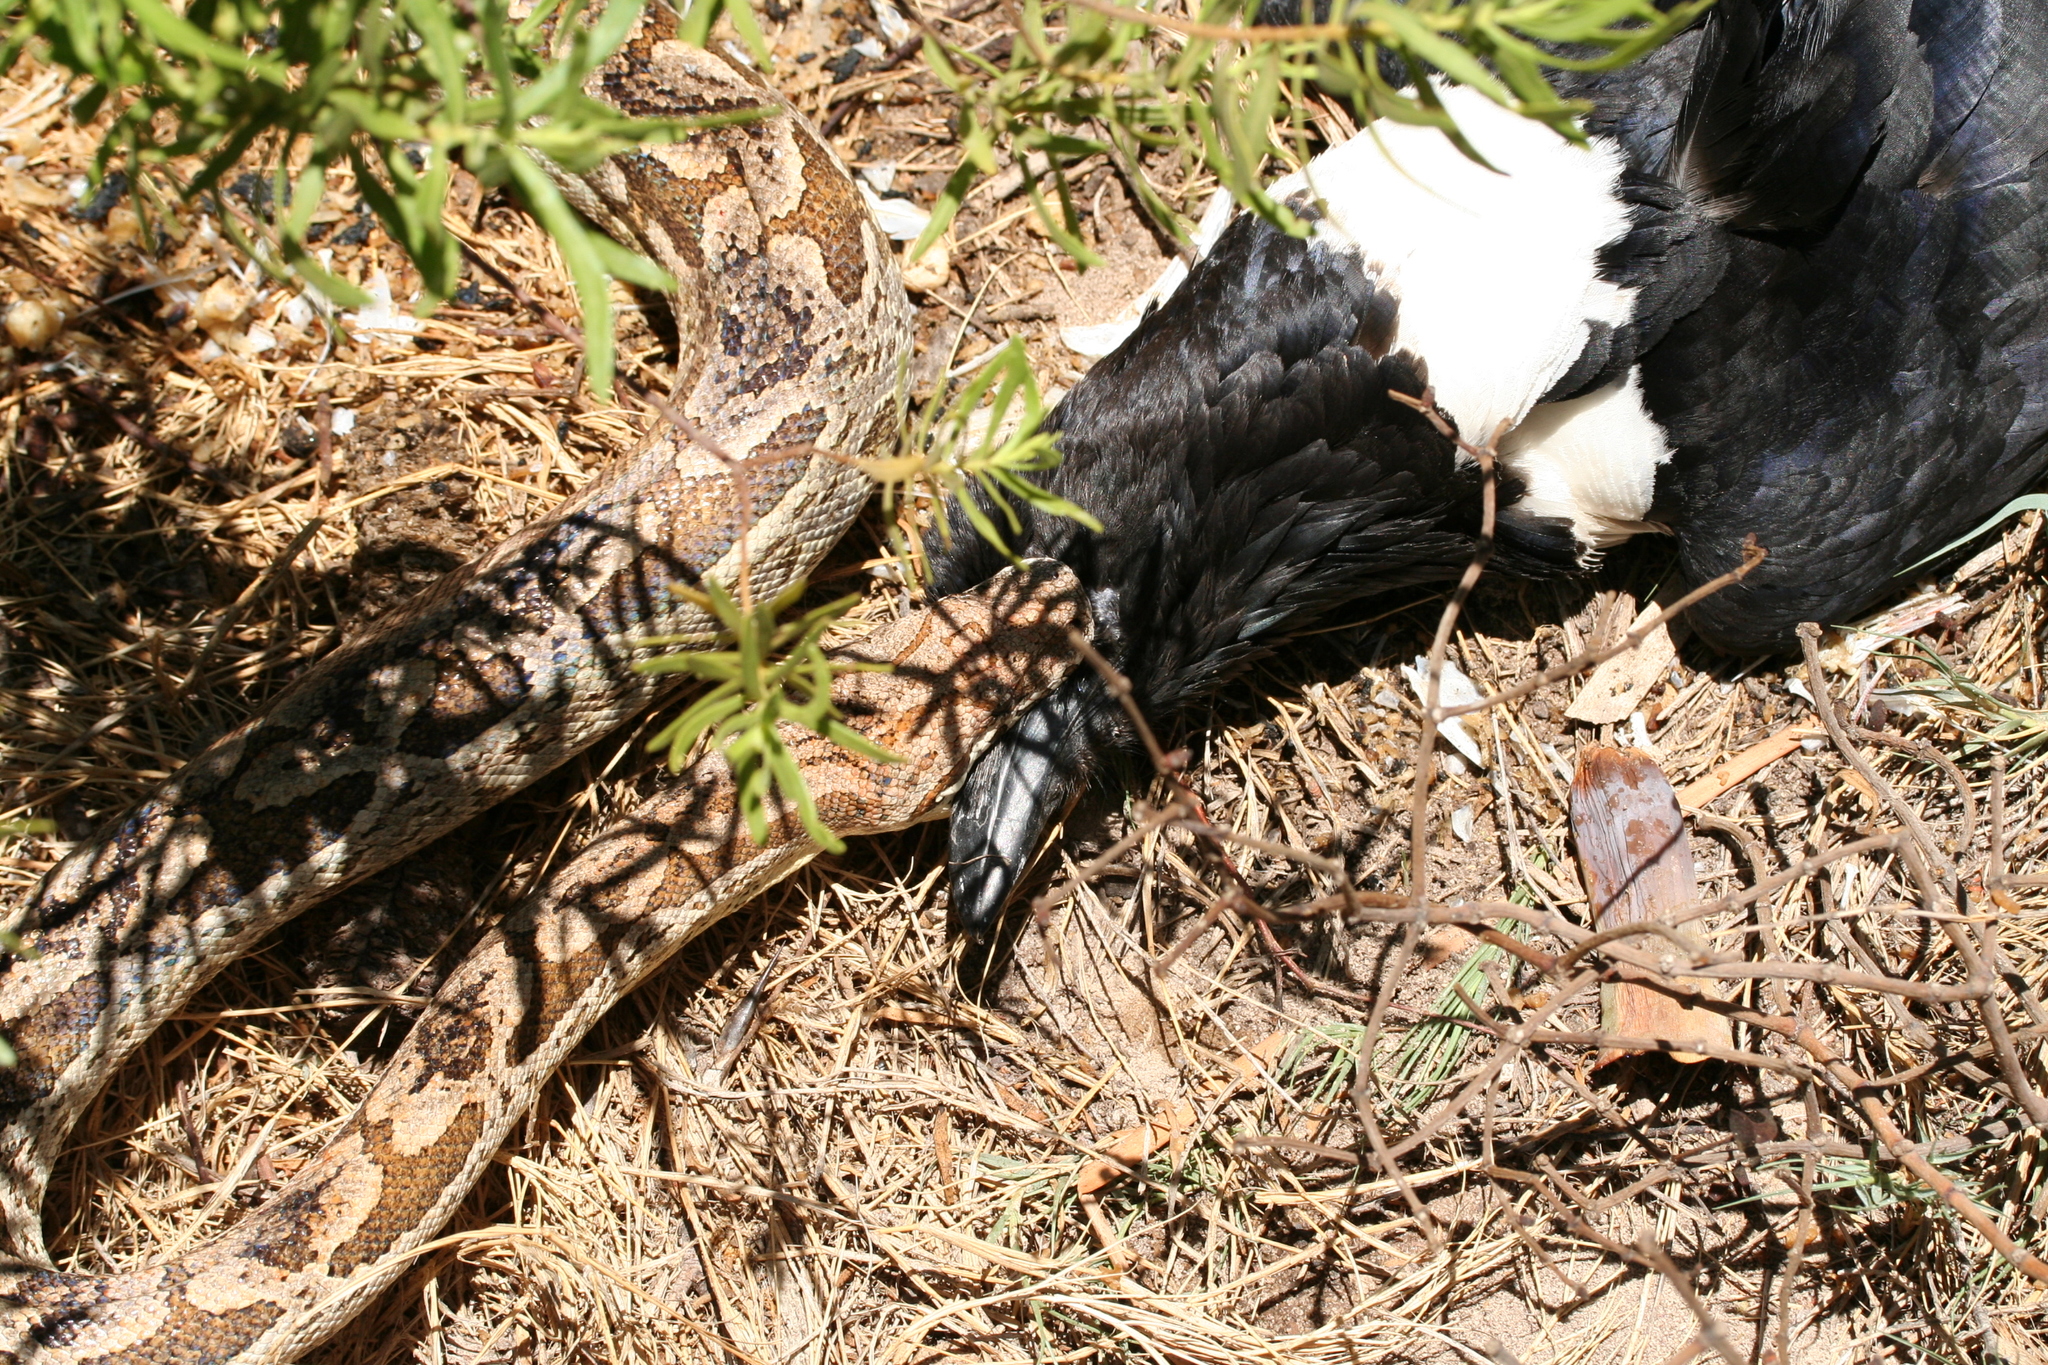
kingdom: Animalia
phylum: Chordata
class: Squamata
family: Boidae
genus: Acrantophis
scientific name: Acrantophis dumerili
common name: Dumeril's boa
